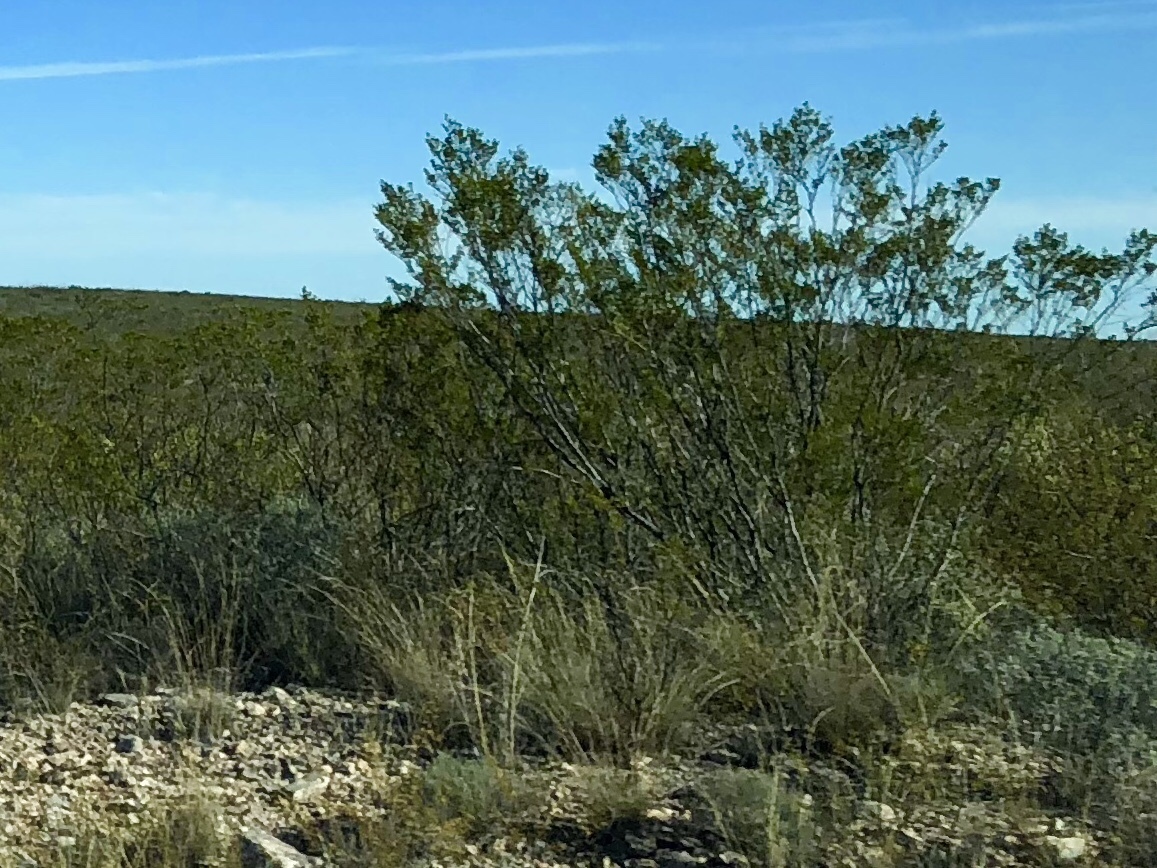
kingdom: Plantae
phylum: Tracheophyta
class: Magnoliopsida
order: Zygophyllales
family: Zygophyllaceae
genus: Larrea
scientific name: Larrea tridentata
